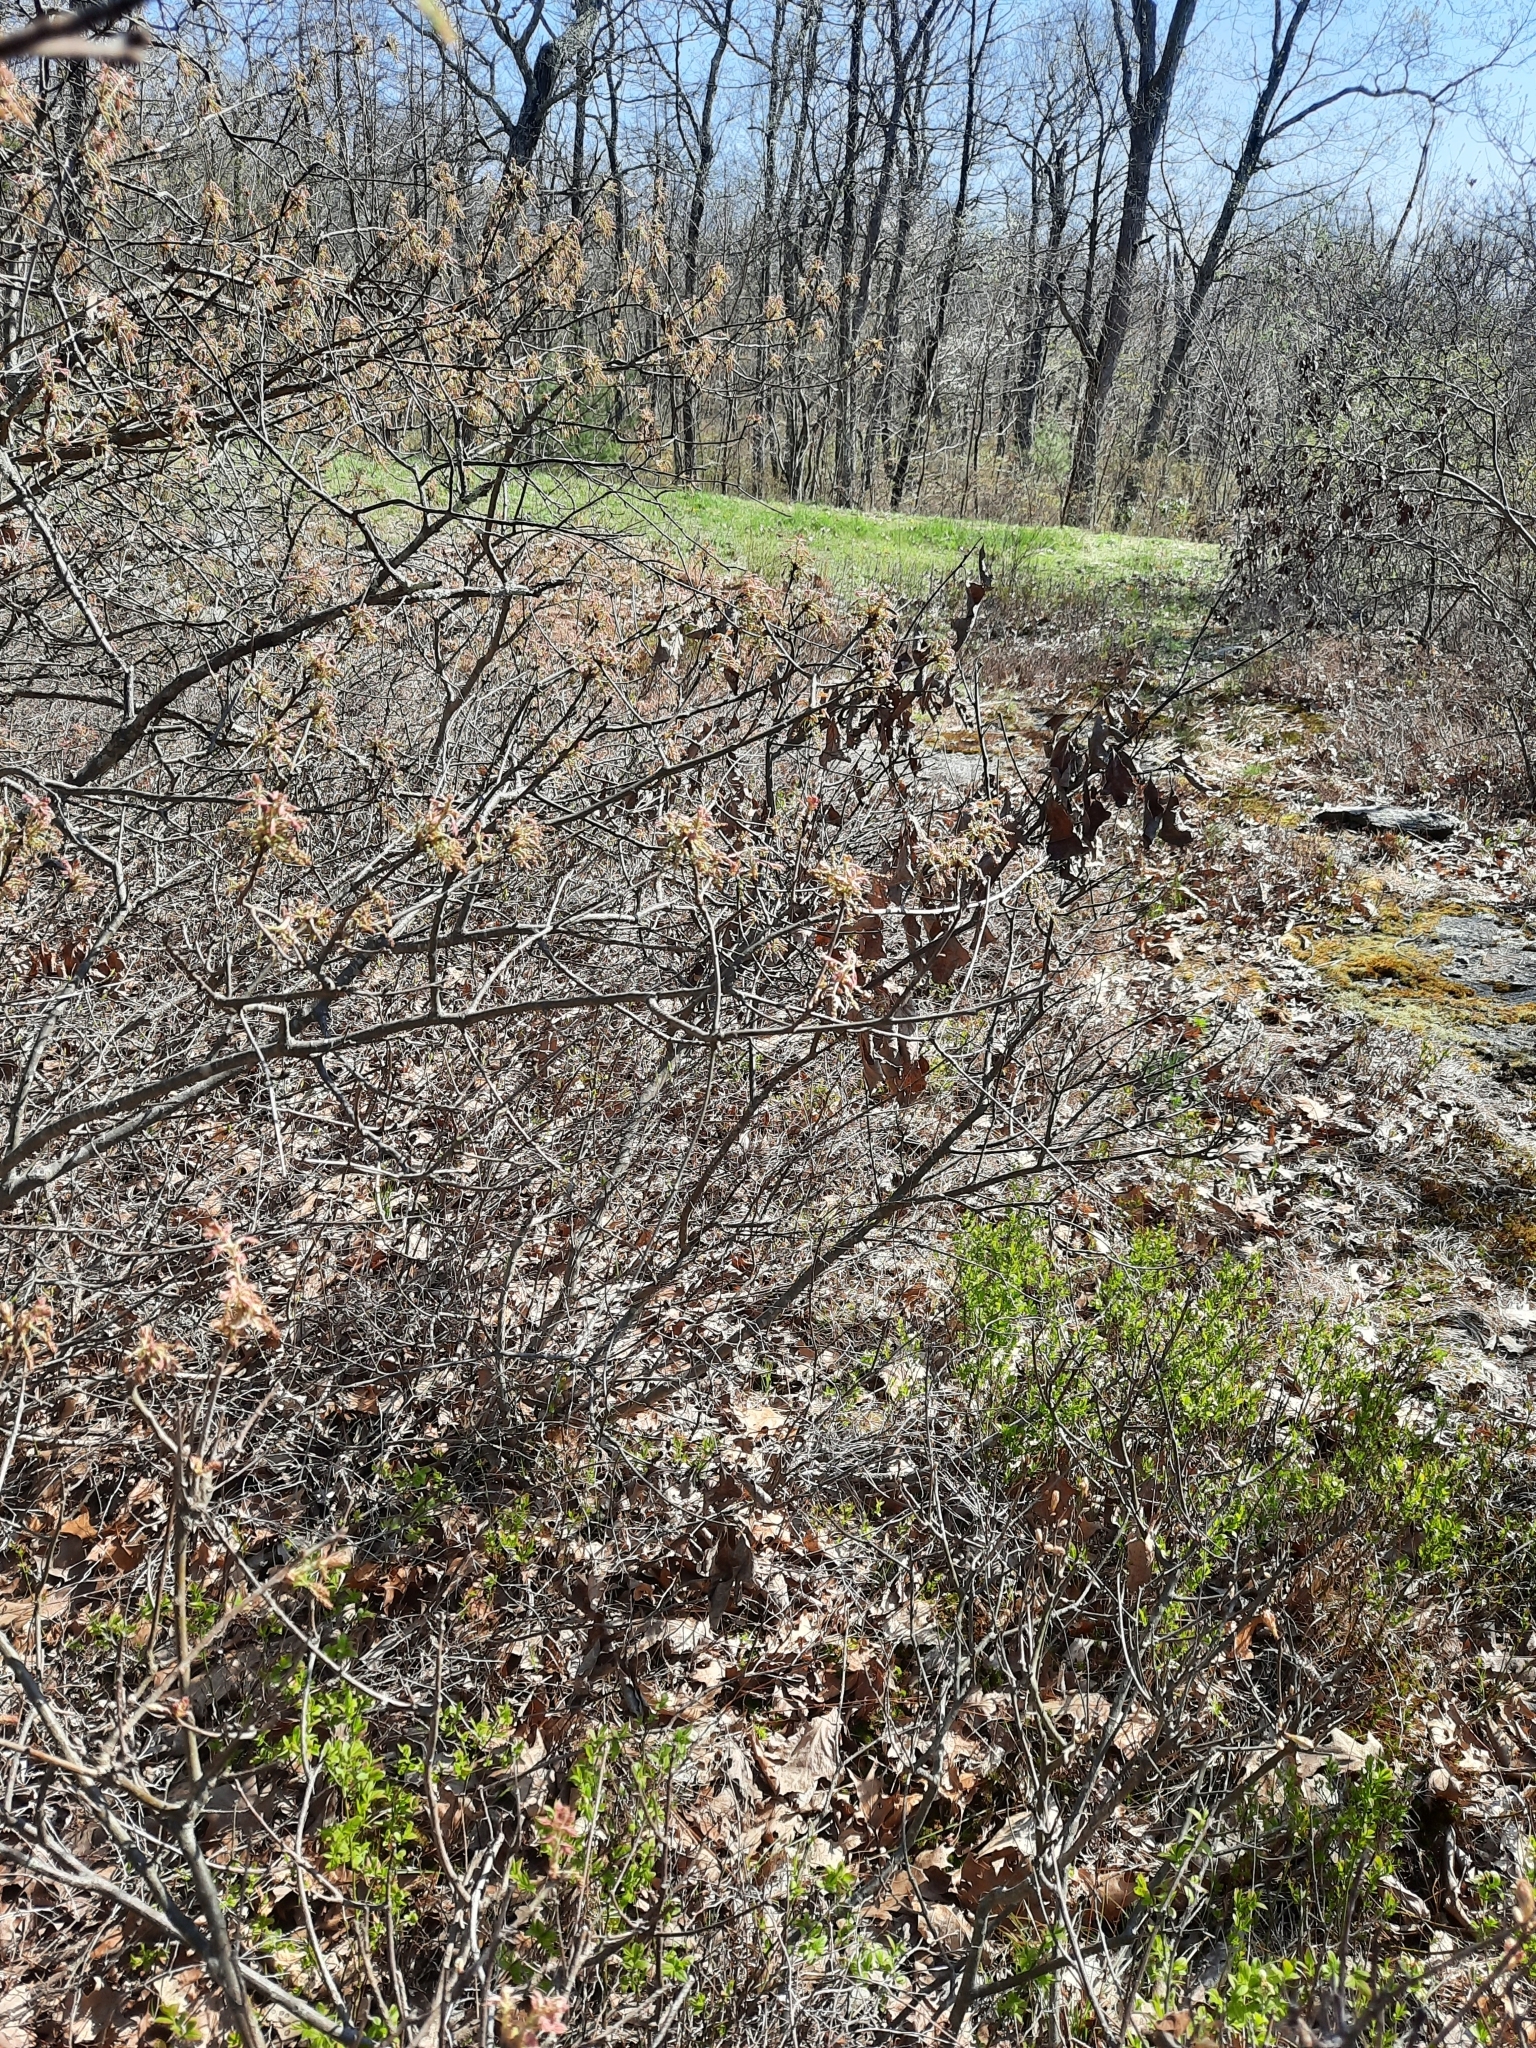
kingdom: Plantae
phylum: Tracheophyta
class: Magnoliopsida
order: Fagales
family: Fagaceae
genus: Quercus
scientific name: Quercus ilicifolia
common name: Bear oak
